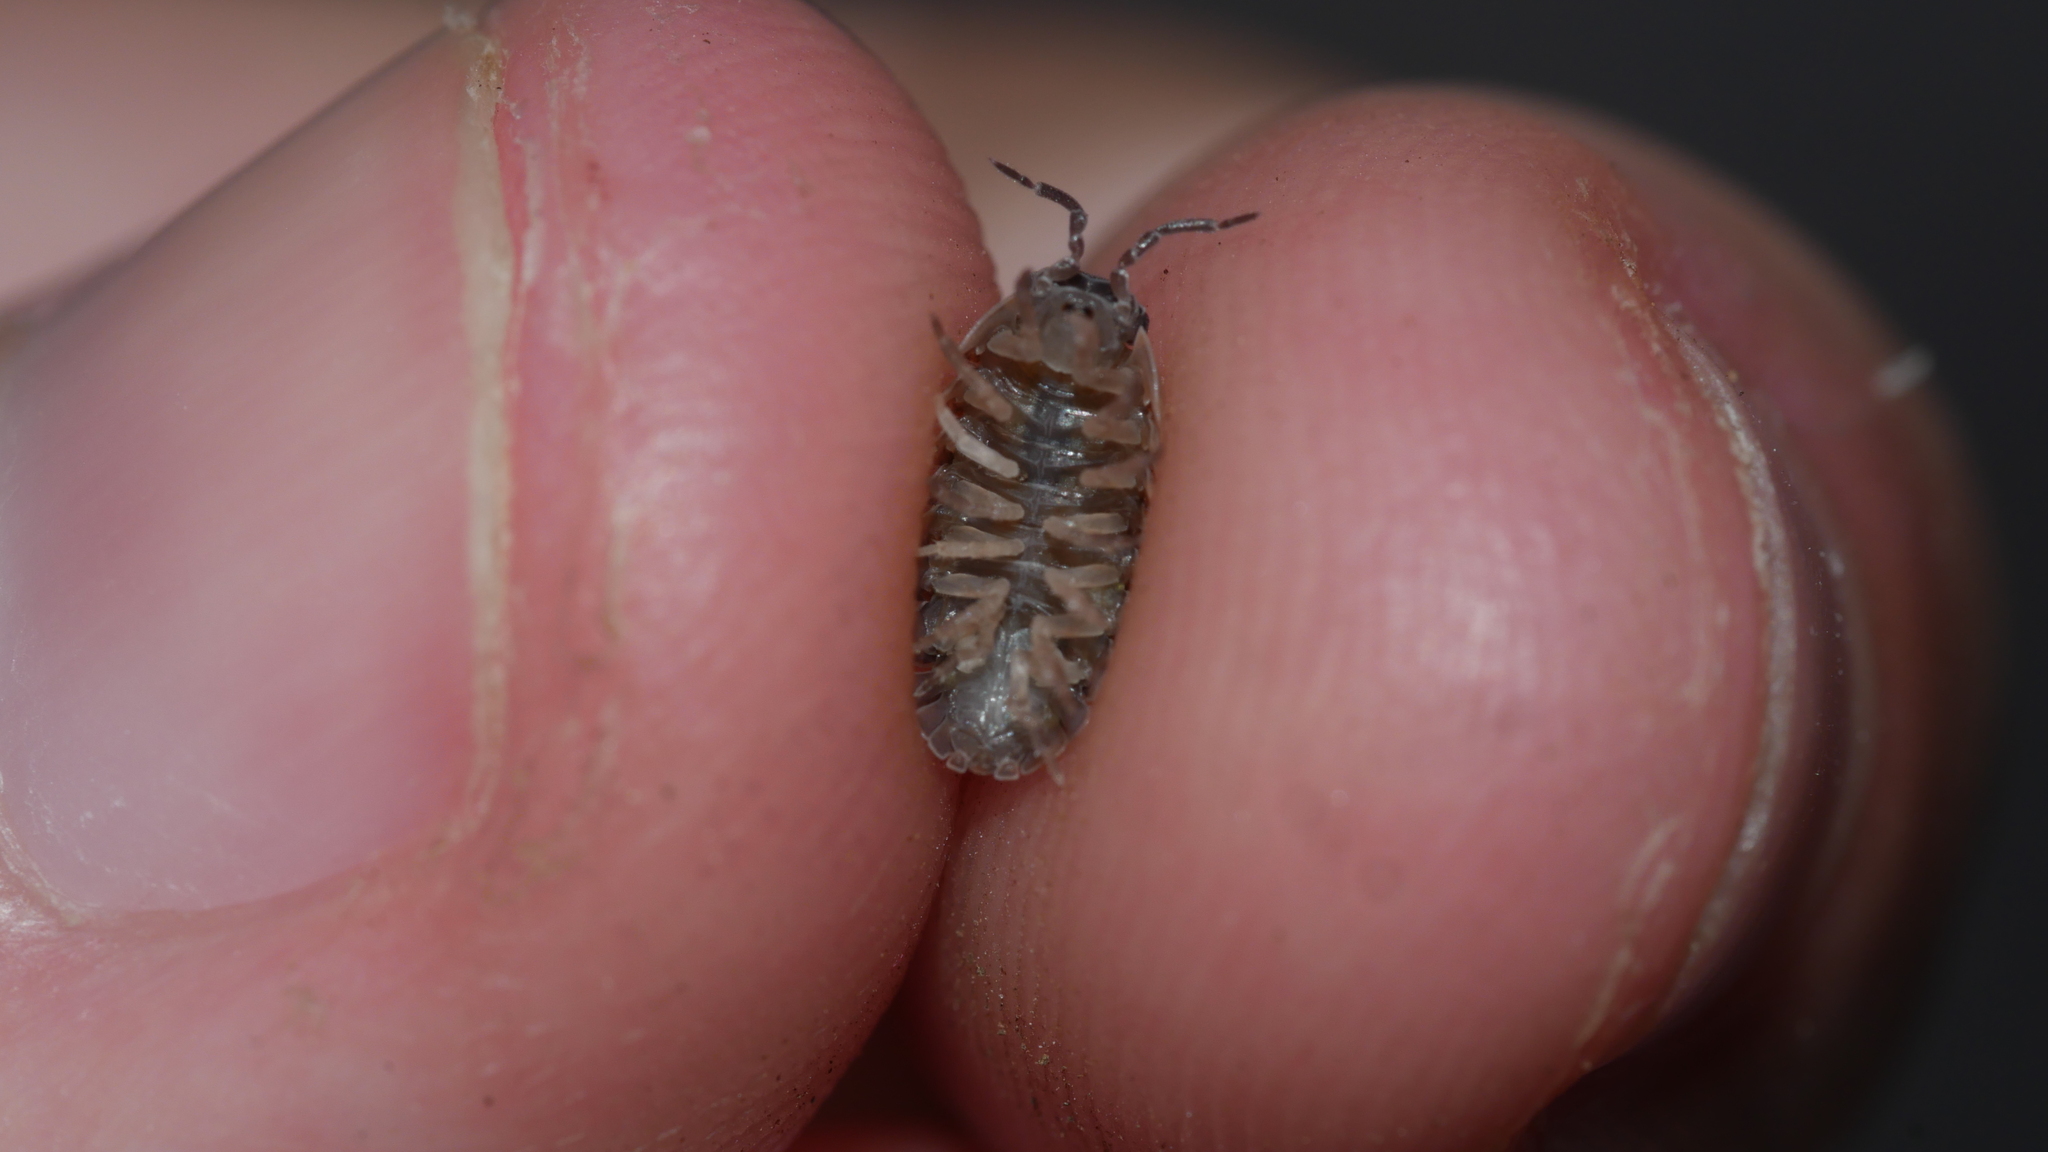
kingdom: Animalia
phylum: Arthropoda
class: Malacostraca
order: Isopoda
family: Armadillidiidae
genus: Armadillidium
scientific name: Armadillidium vulgare
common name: Common pill woodlouse
